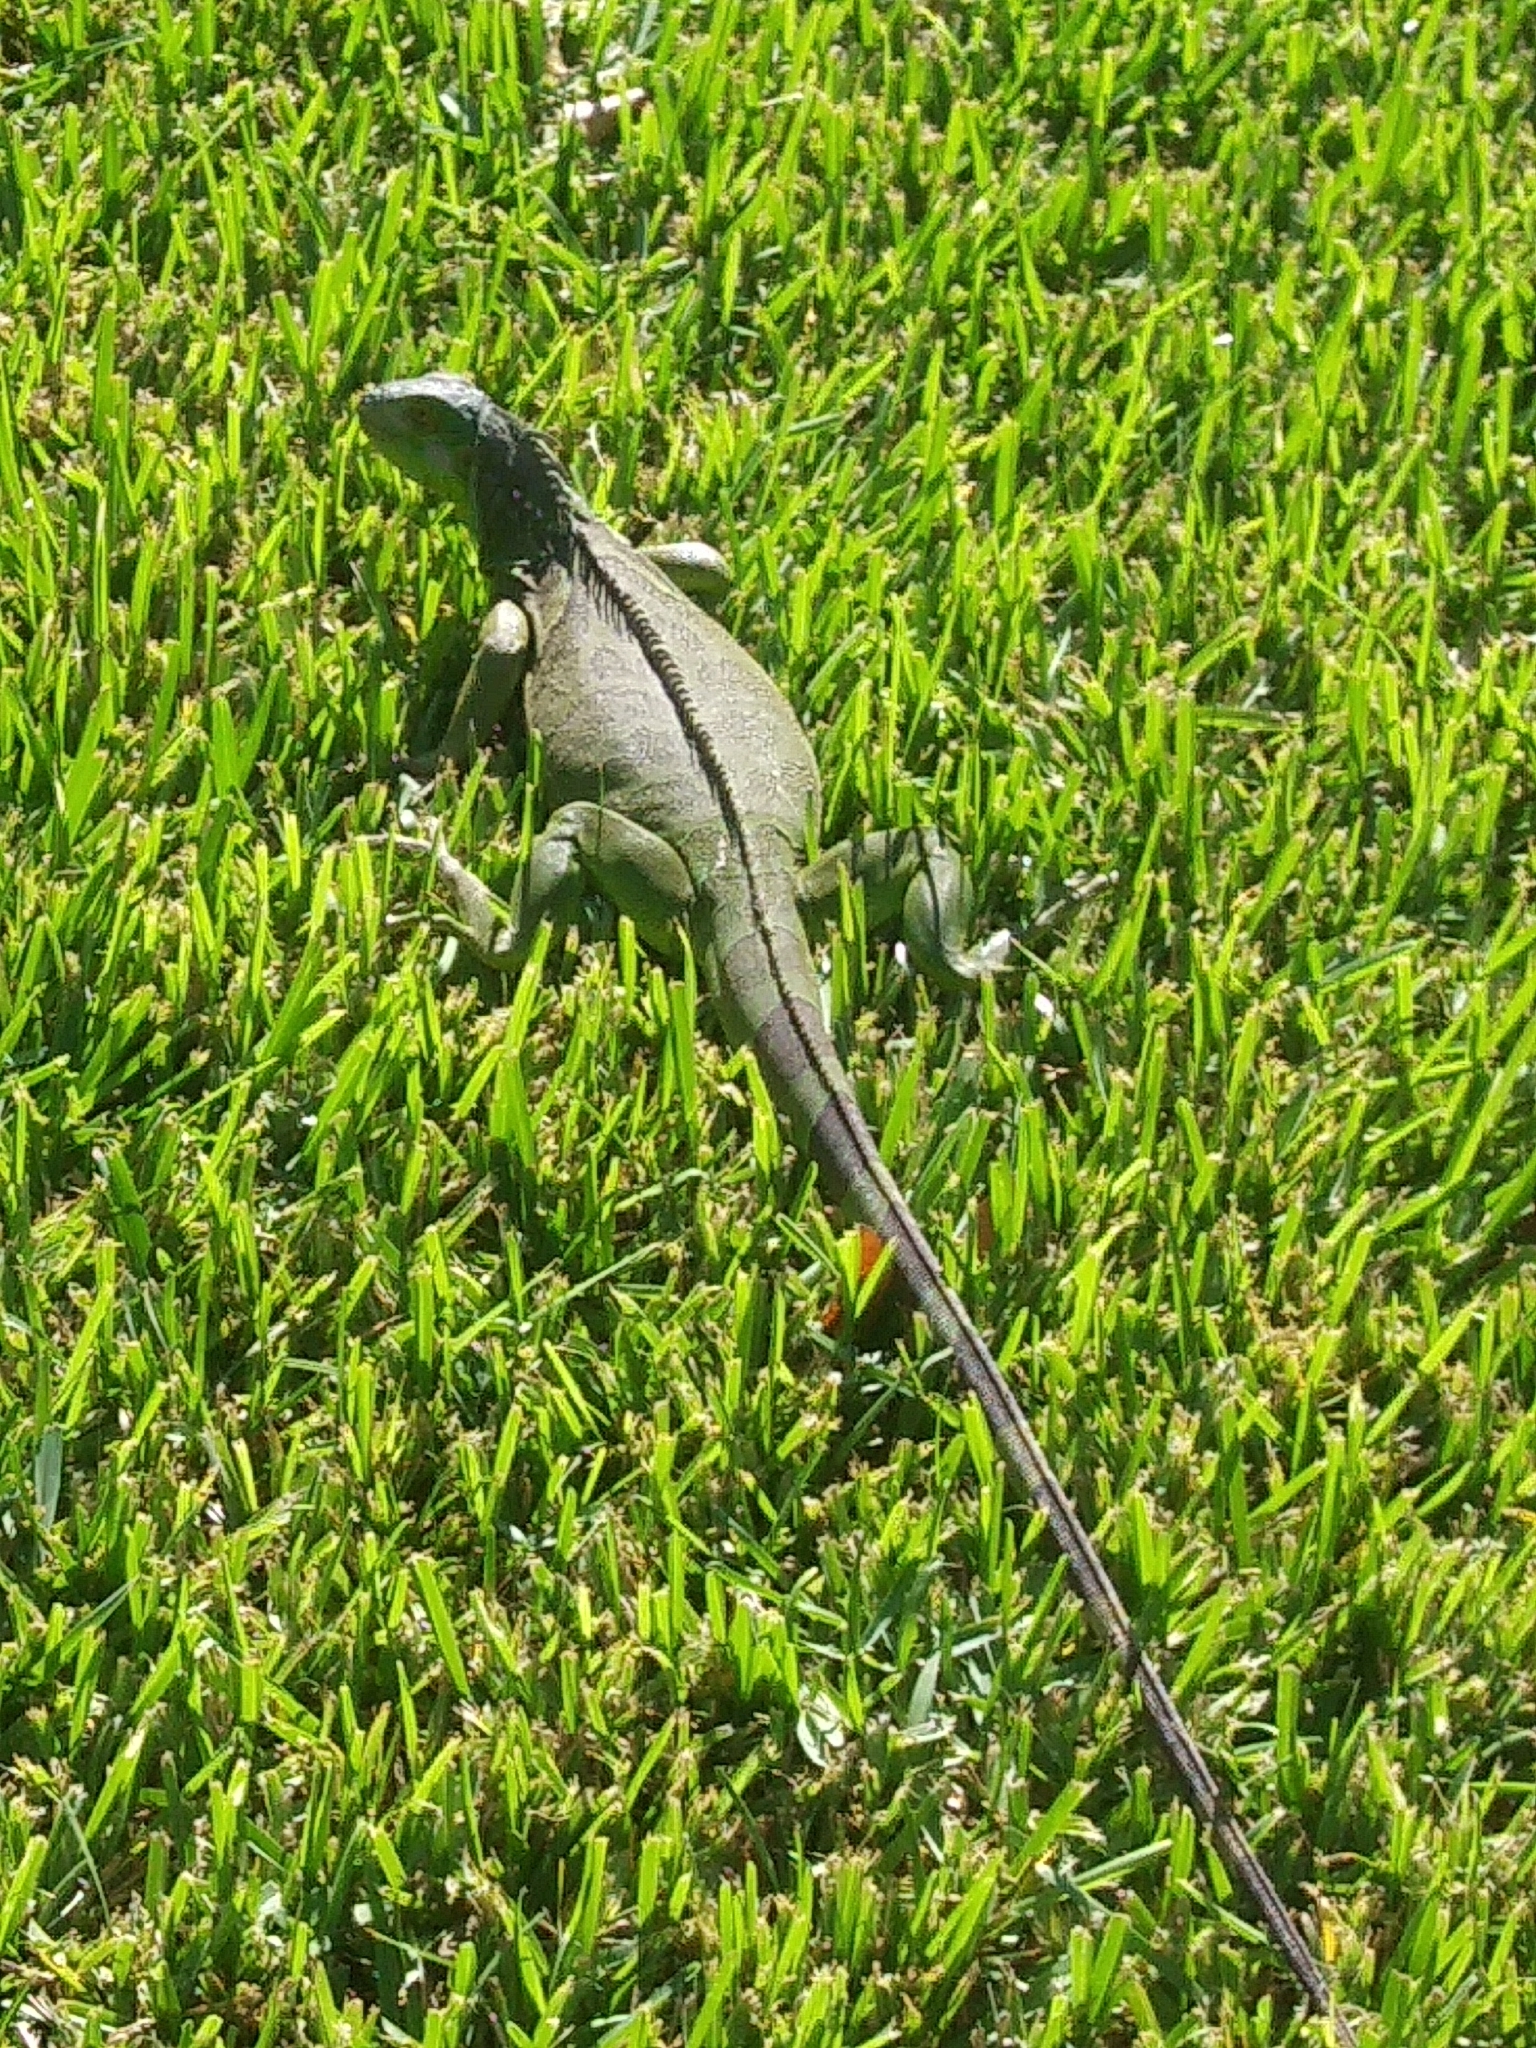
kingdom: Animalia
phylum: Chordata
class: Squamata
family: Iguanidae
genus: Iguana
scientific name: Iguana iguana
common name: Green iguana
